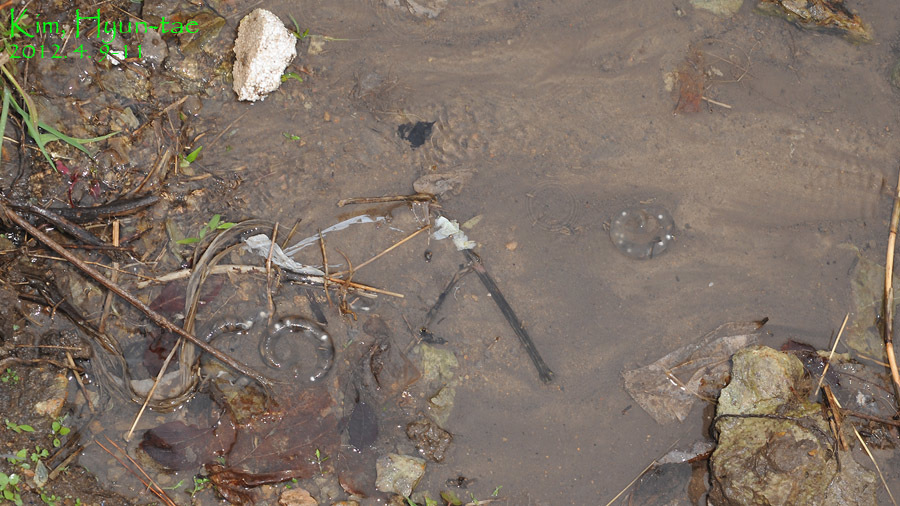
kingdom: Animalia
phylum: Chordata
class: Amphibia
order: Caudata
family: Hynobiidae
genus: Hynobius
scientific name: Hynobius geojeensis
